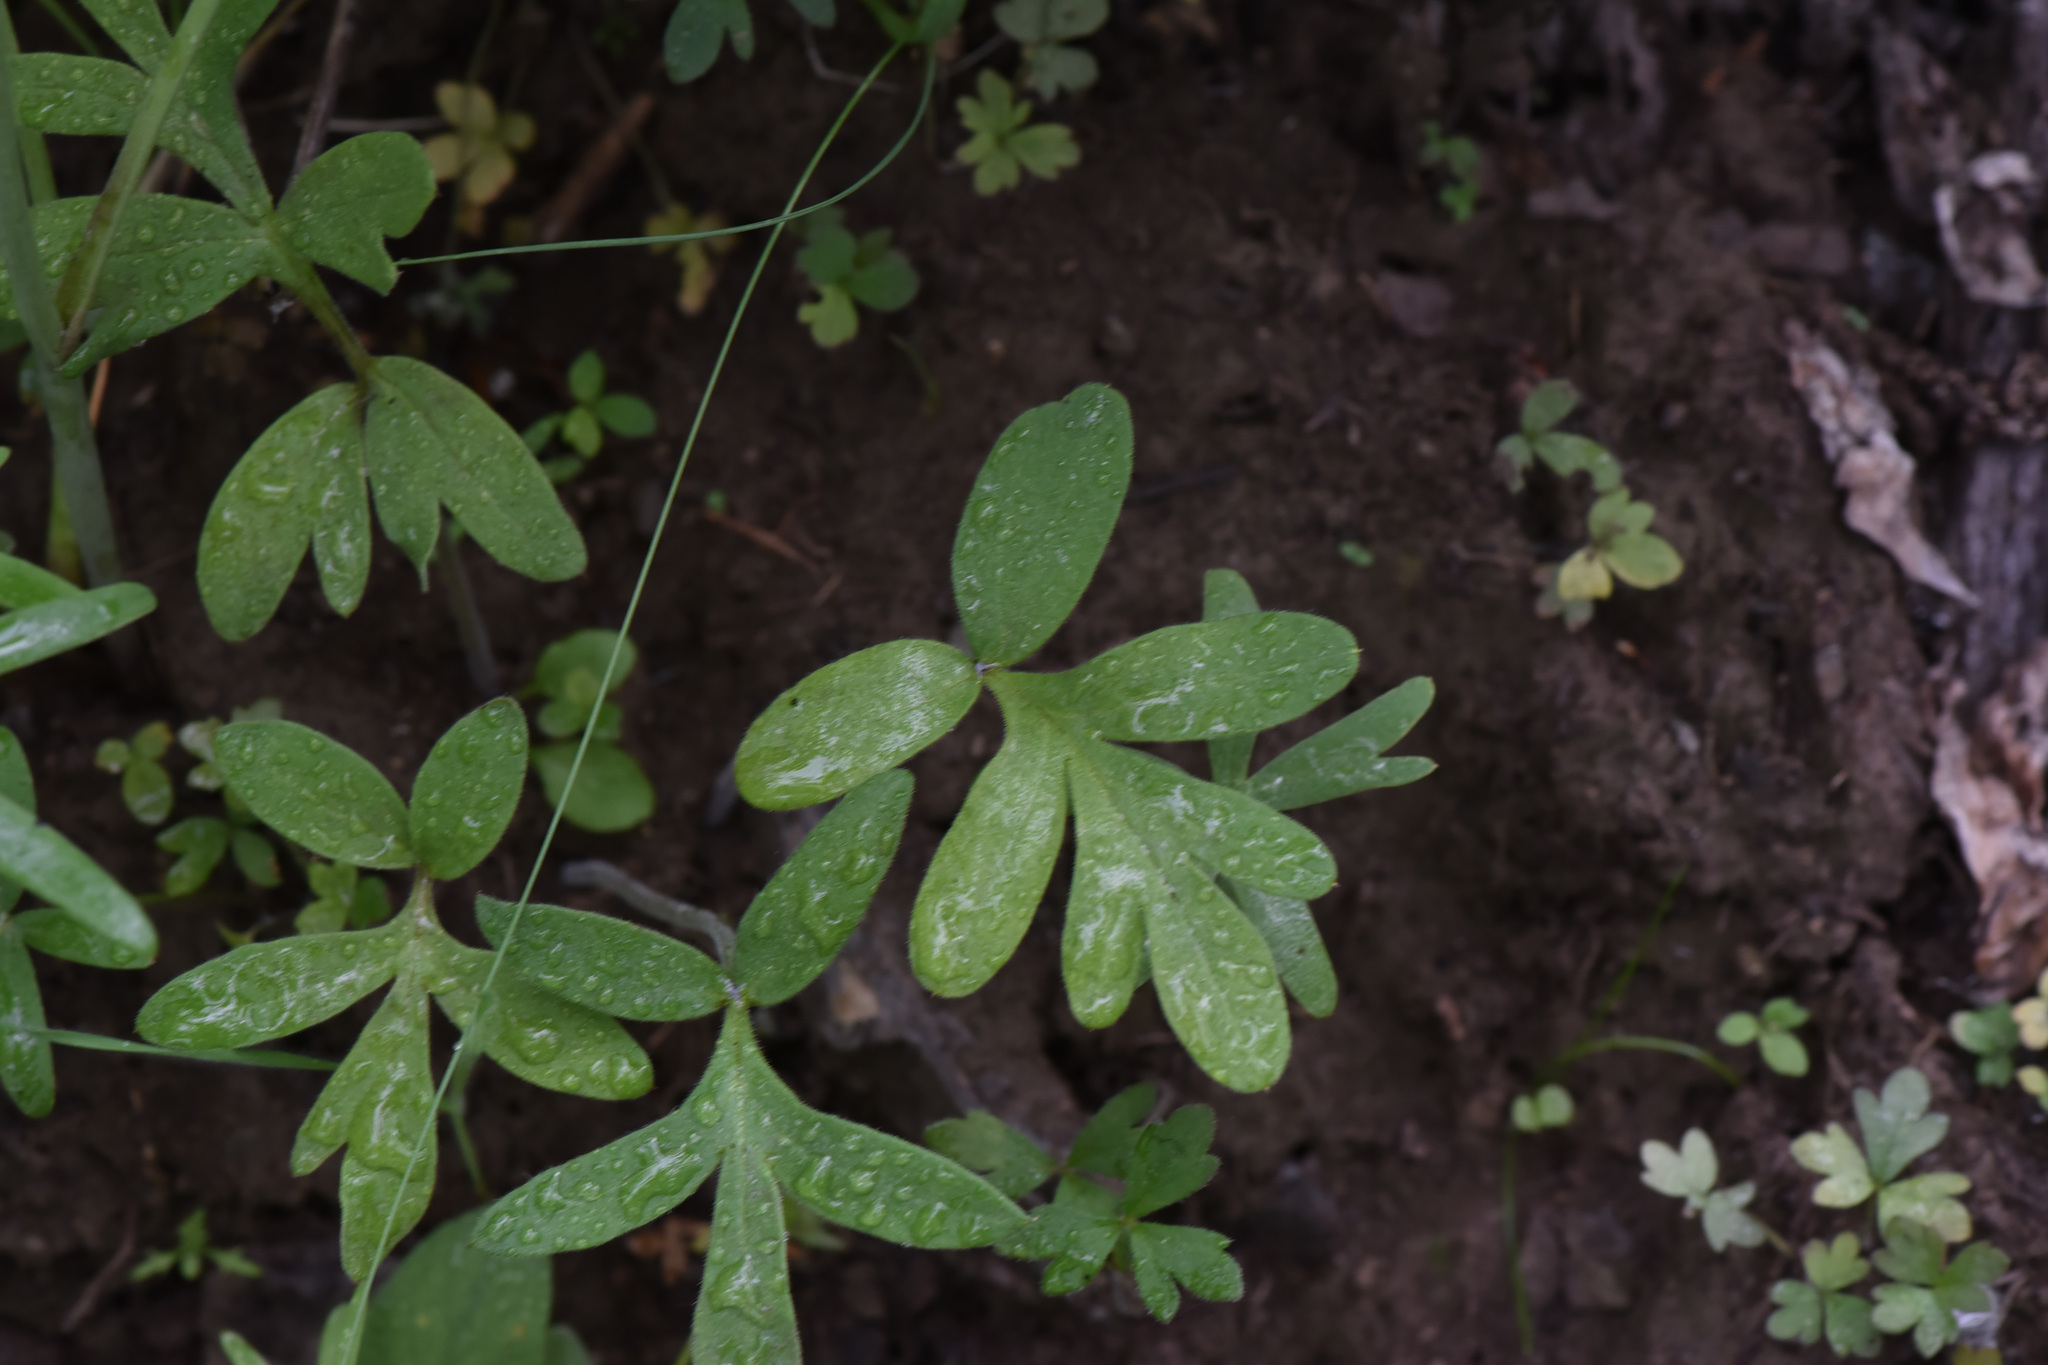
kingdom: Plantae
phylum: Tracheophyta
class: Magnoliopsida
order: Boraginales
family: Hydrophyllaceae
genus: Hydrophyllum
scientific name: Hydrophyllum capitatum
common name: Woollen-breeches
